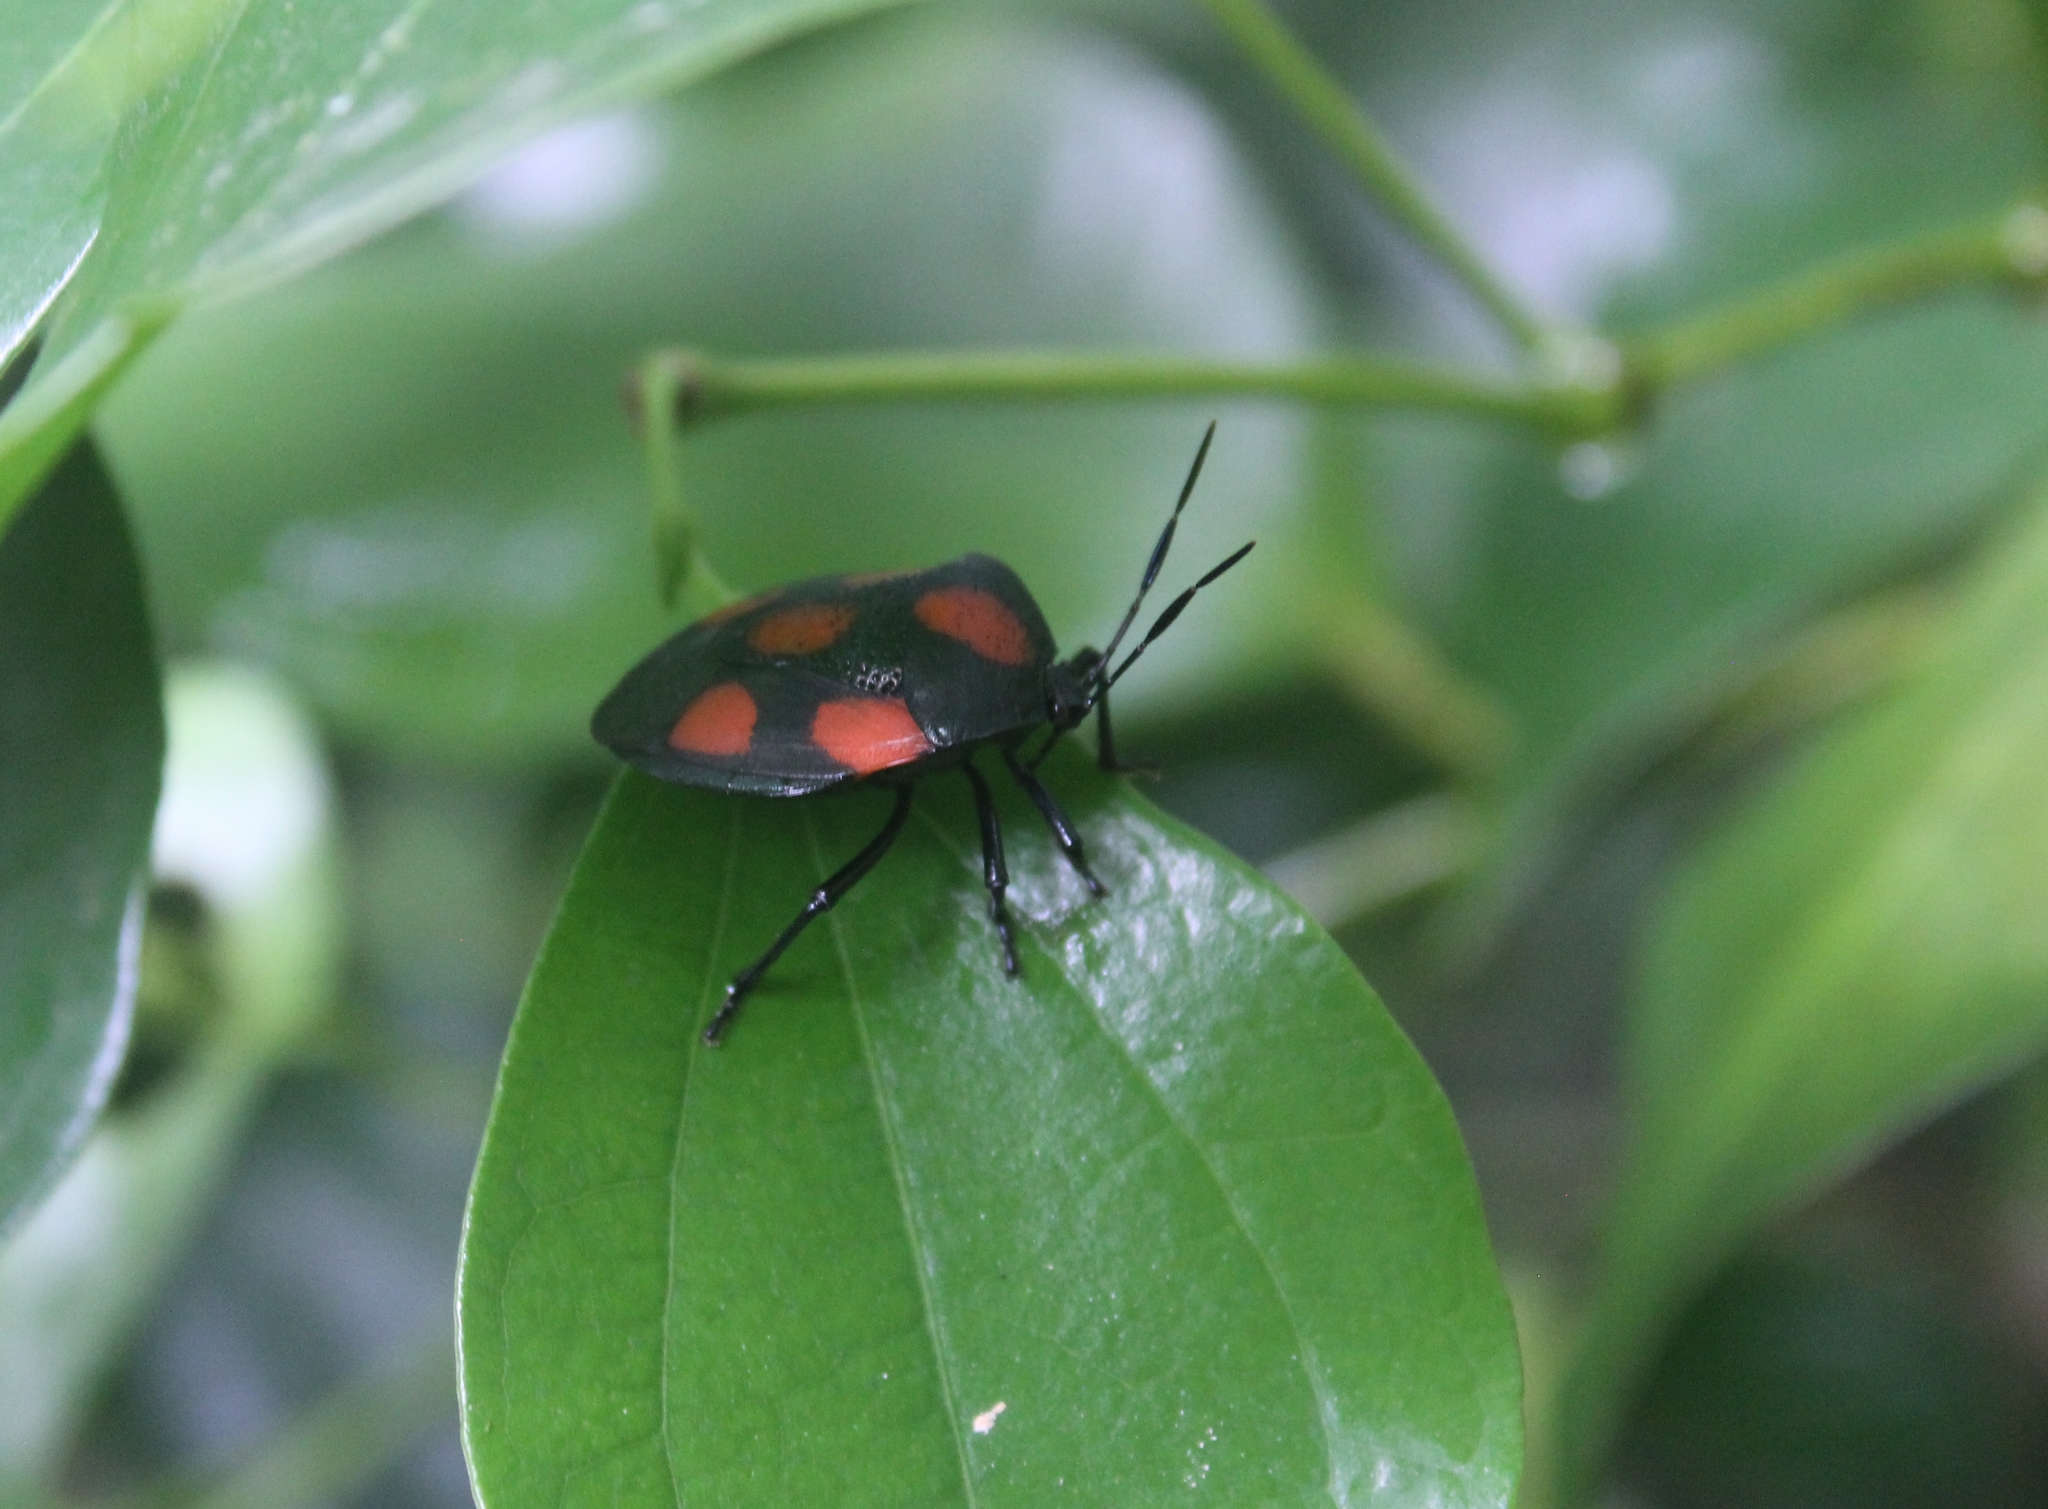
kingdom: Animalia
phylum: Arthropoda
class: Insecta
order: Hemiptera
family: Pentatomidae
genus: Brachystethus
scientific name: Brachystethus rubromaculatus
